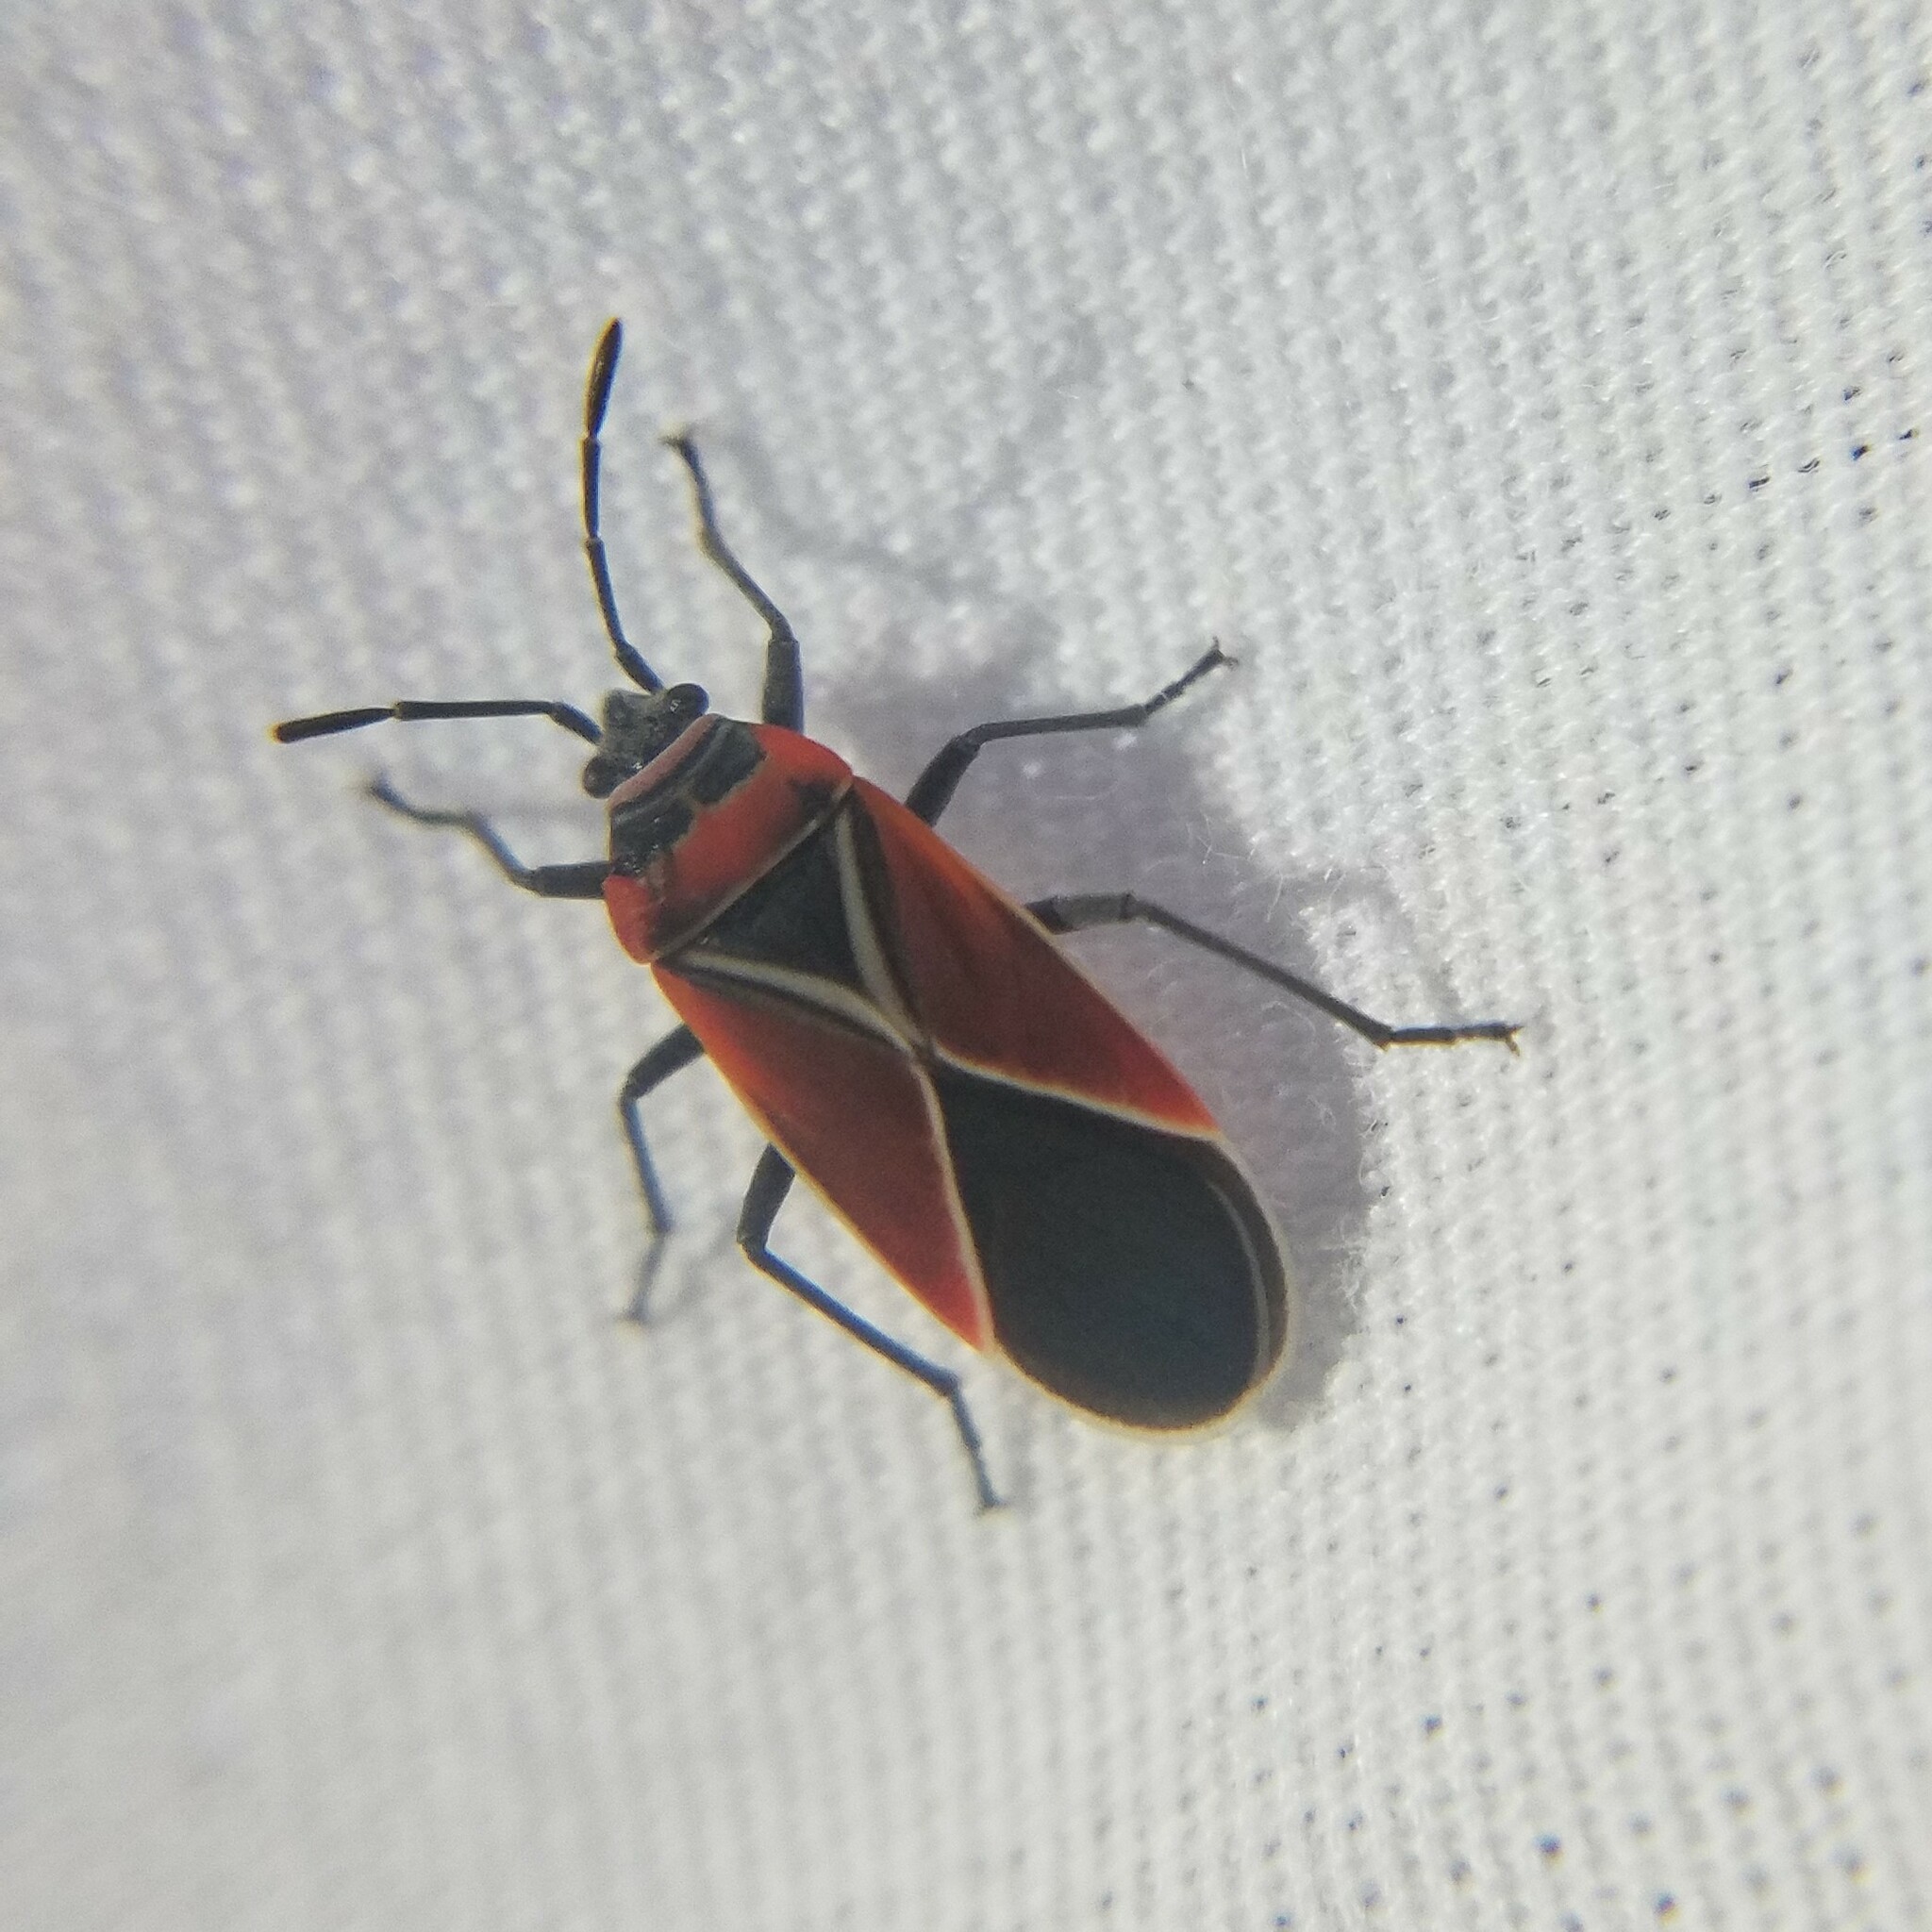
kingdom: Animalia
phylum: Arthropoda
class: Insecta
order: Hemiptera
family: Lygaeidae
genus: Neacoryphus
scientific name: Neacoryphus bicrucis
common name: Lygaeid bug
